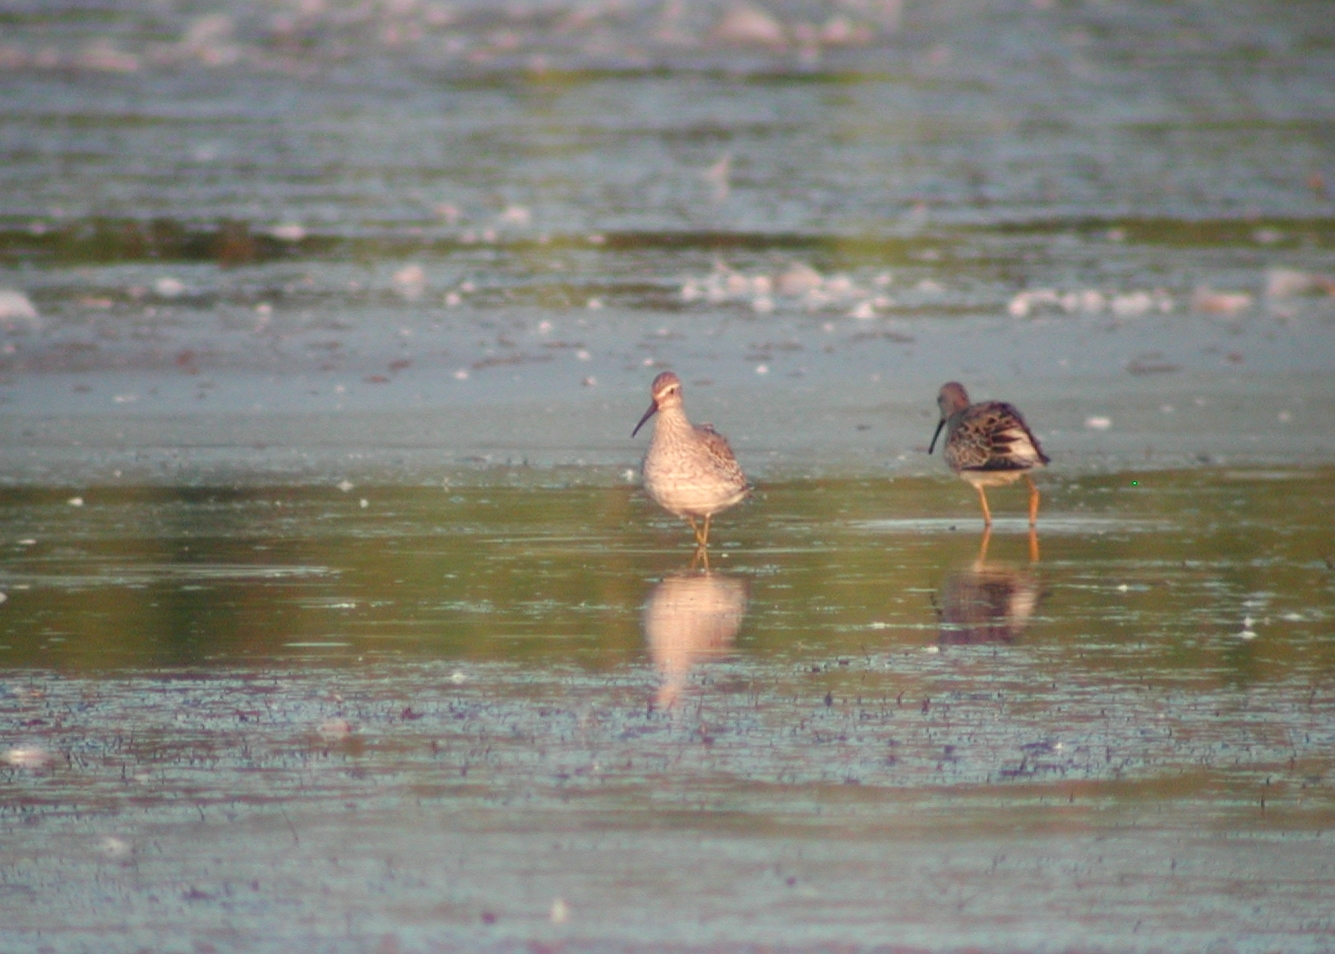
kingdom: Animalia
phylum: Chordata
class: Aves
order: Charadriiformes
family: Scolopacidae
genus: Calidris
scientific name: Calidris himantopus
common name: Stilt sandpiper
